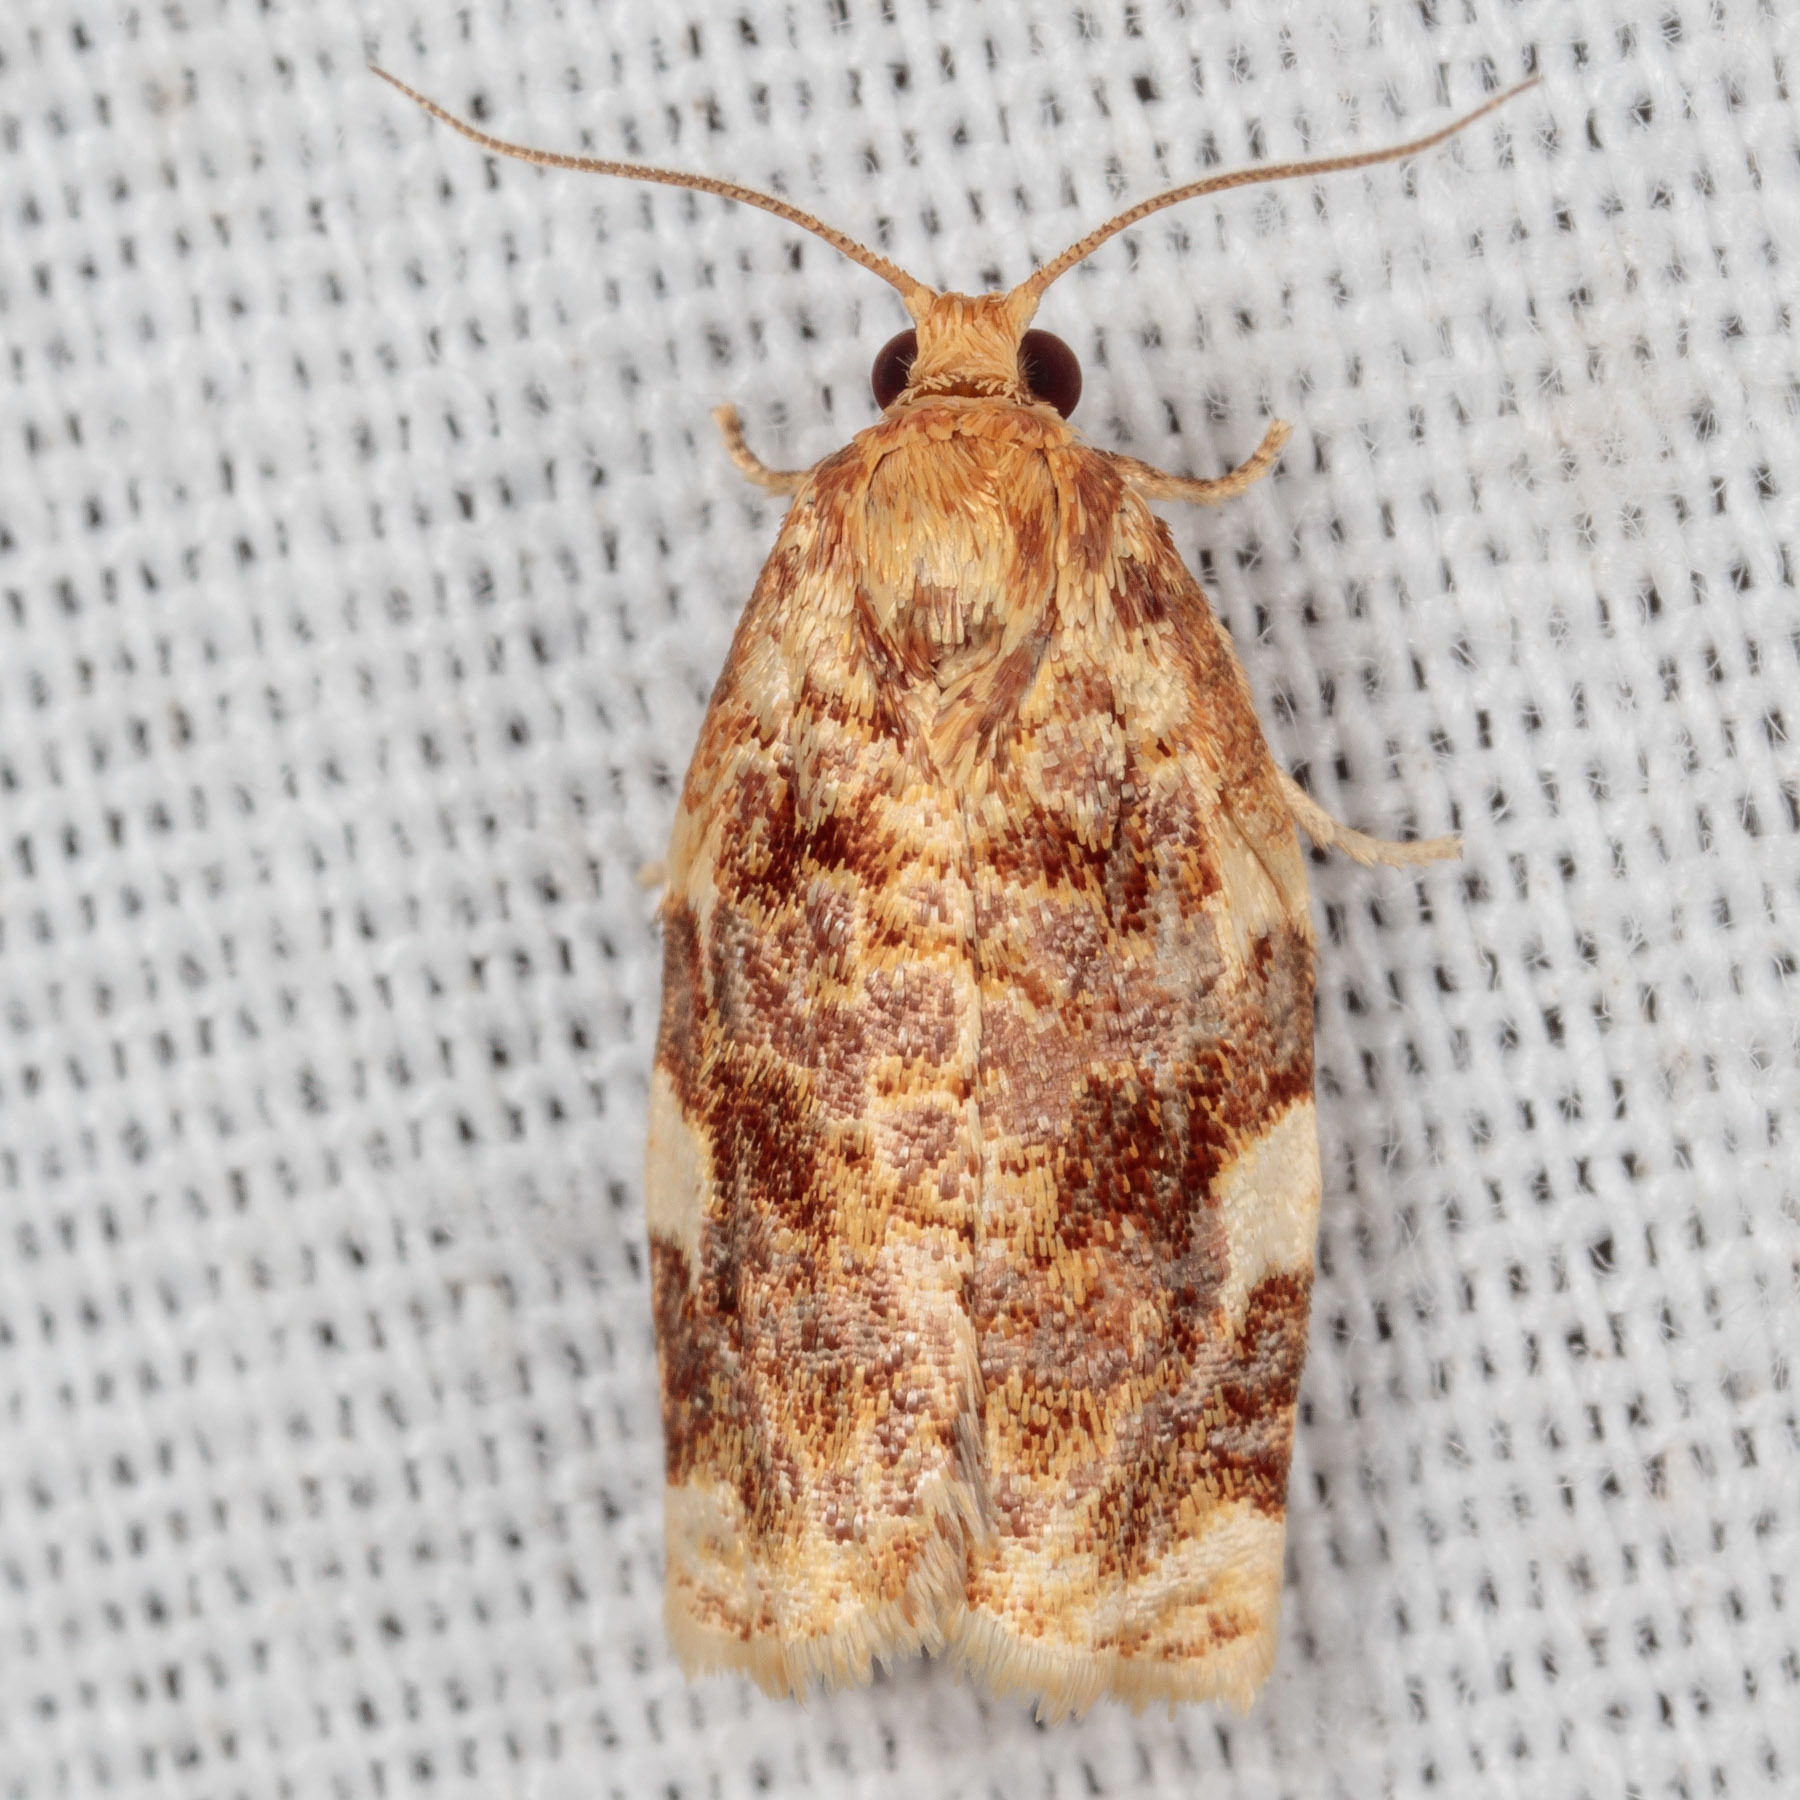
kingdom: Animalia
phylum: Arthropoda
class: Insecta
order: Lepidoptera
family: Tortricidae
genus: Archips
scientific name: Archips argyrospila
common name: Fruit-tree leafroller moth
